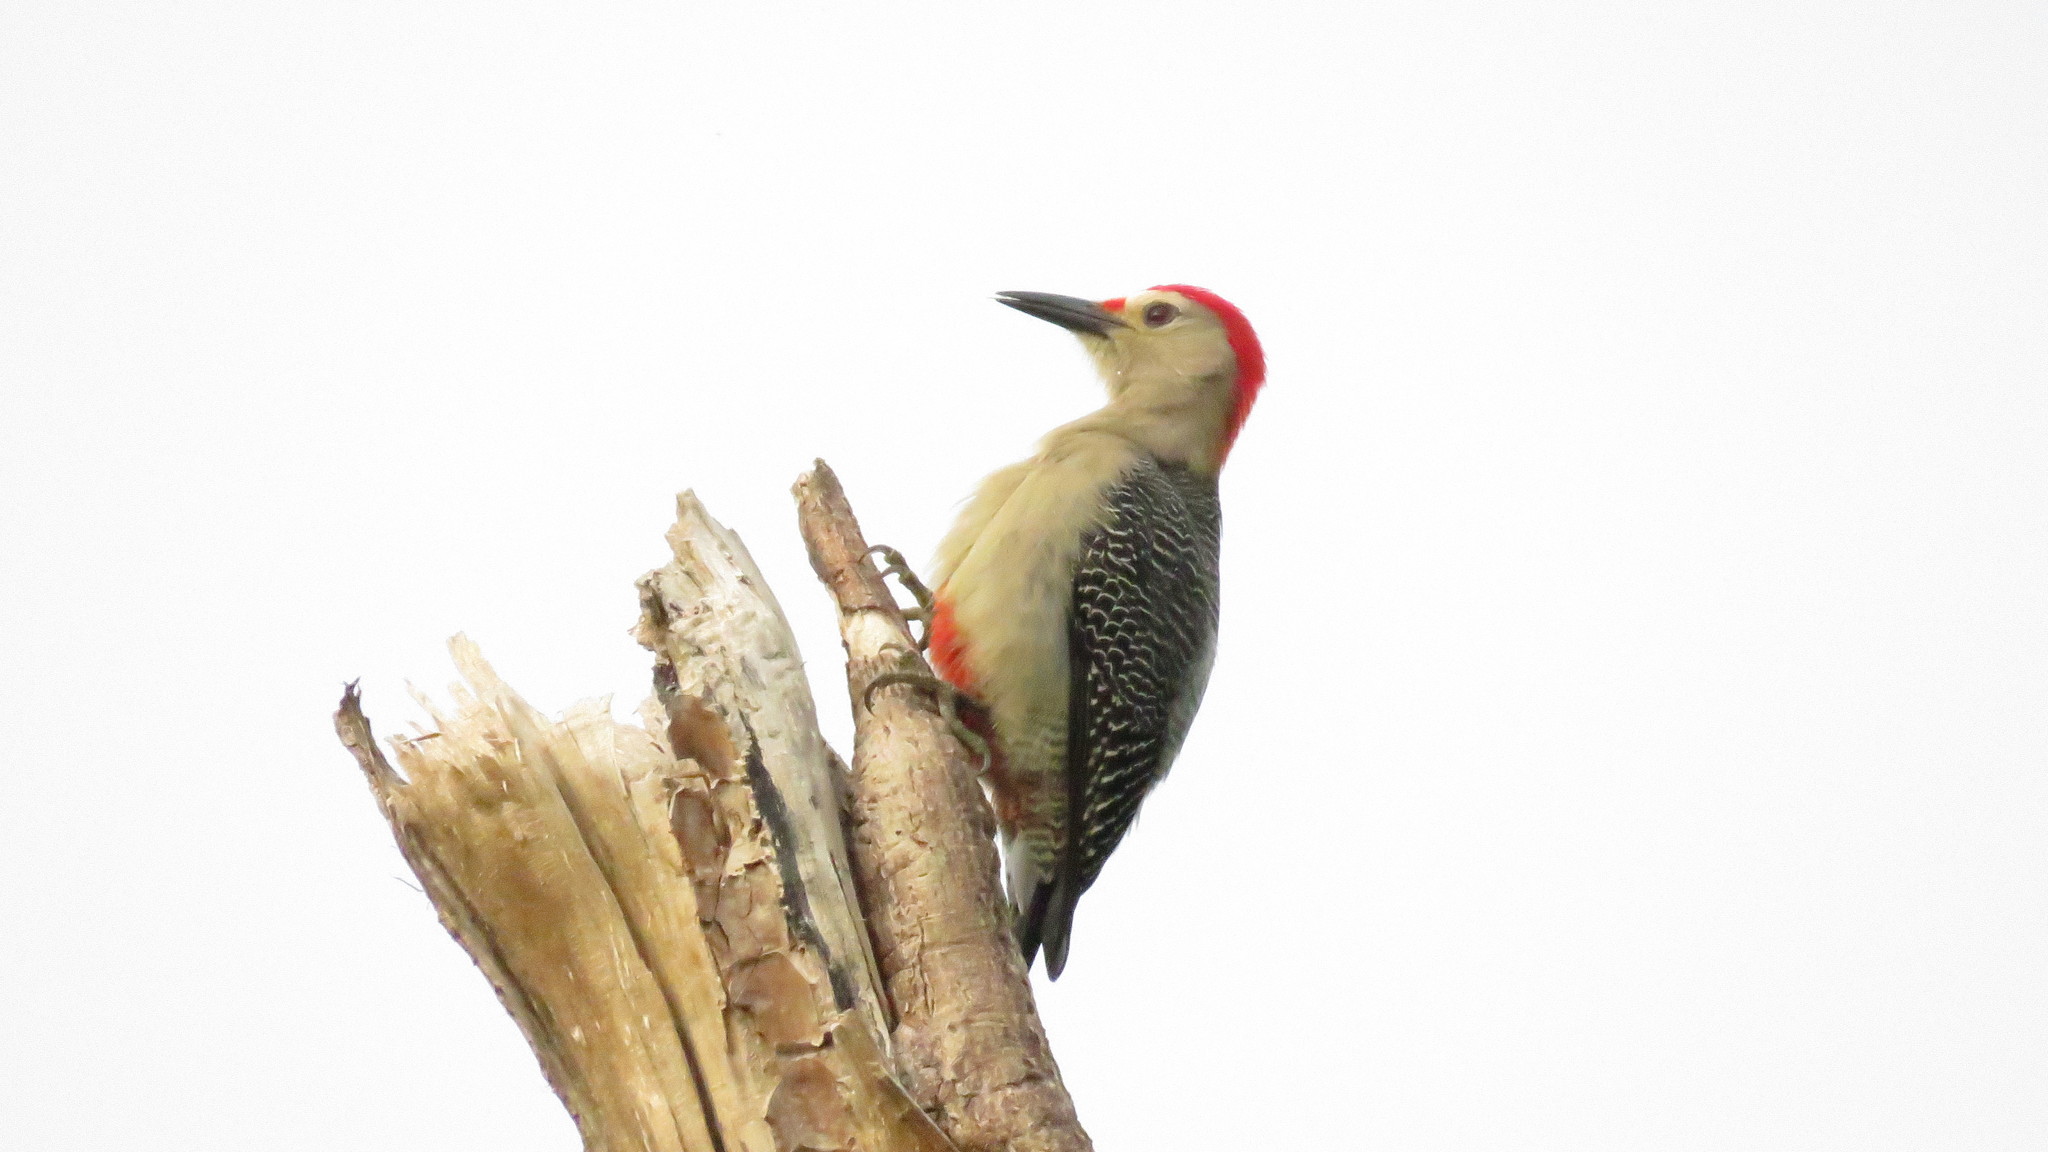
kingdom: Animalia
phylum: Chordata
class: Aves
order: Piciformes
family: Picidae
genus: Melanerpes
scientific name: Melanerpes aurifrons
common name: Golden-fronted woodpecker
